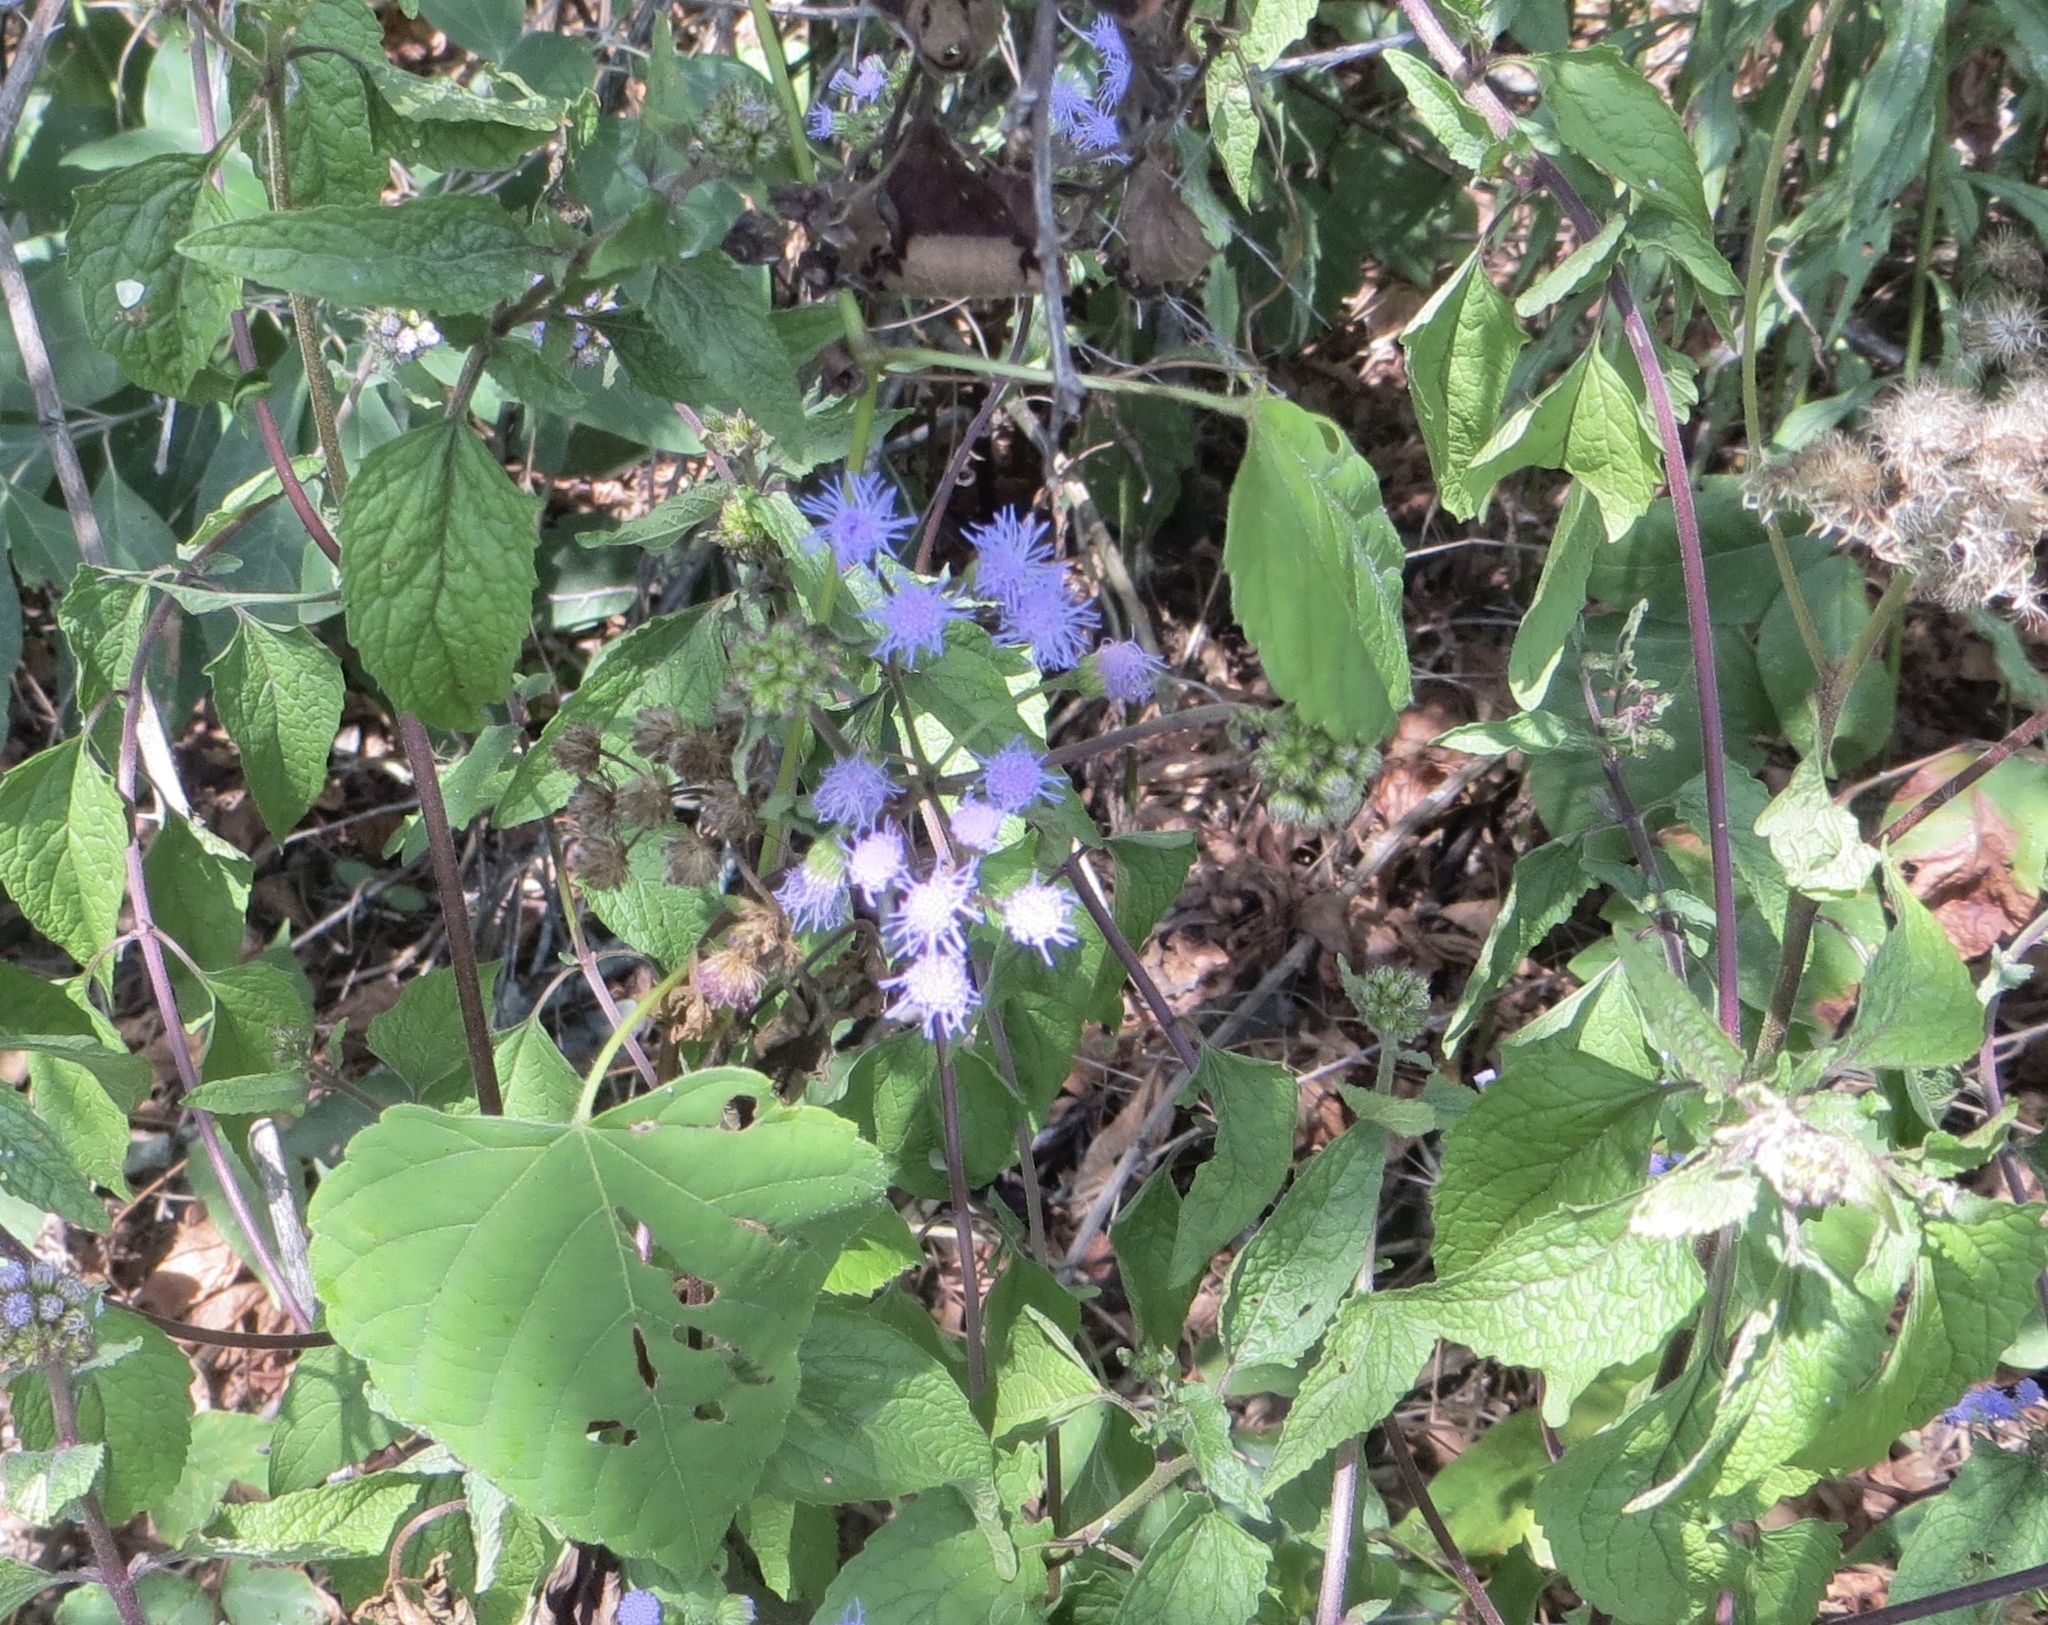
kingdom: Plantae
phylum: Tracheophyta
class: Magnoliopsida
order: Asterales
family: Asteraceae
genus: Conoclinium
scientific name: Conoclinium coelestinum
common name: Blue mistflower
